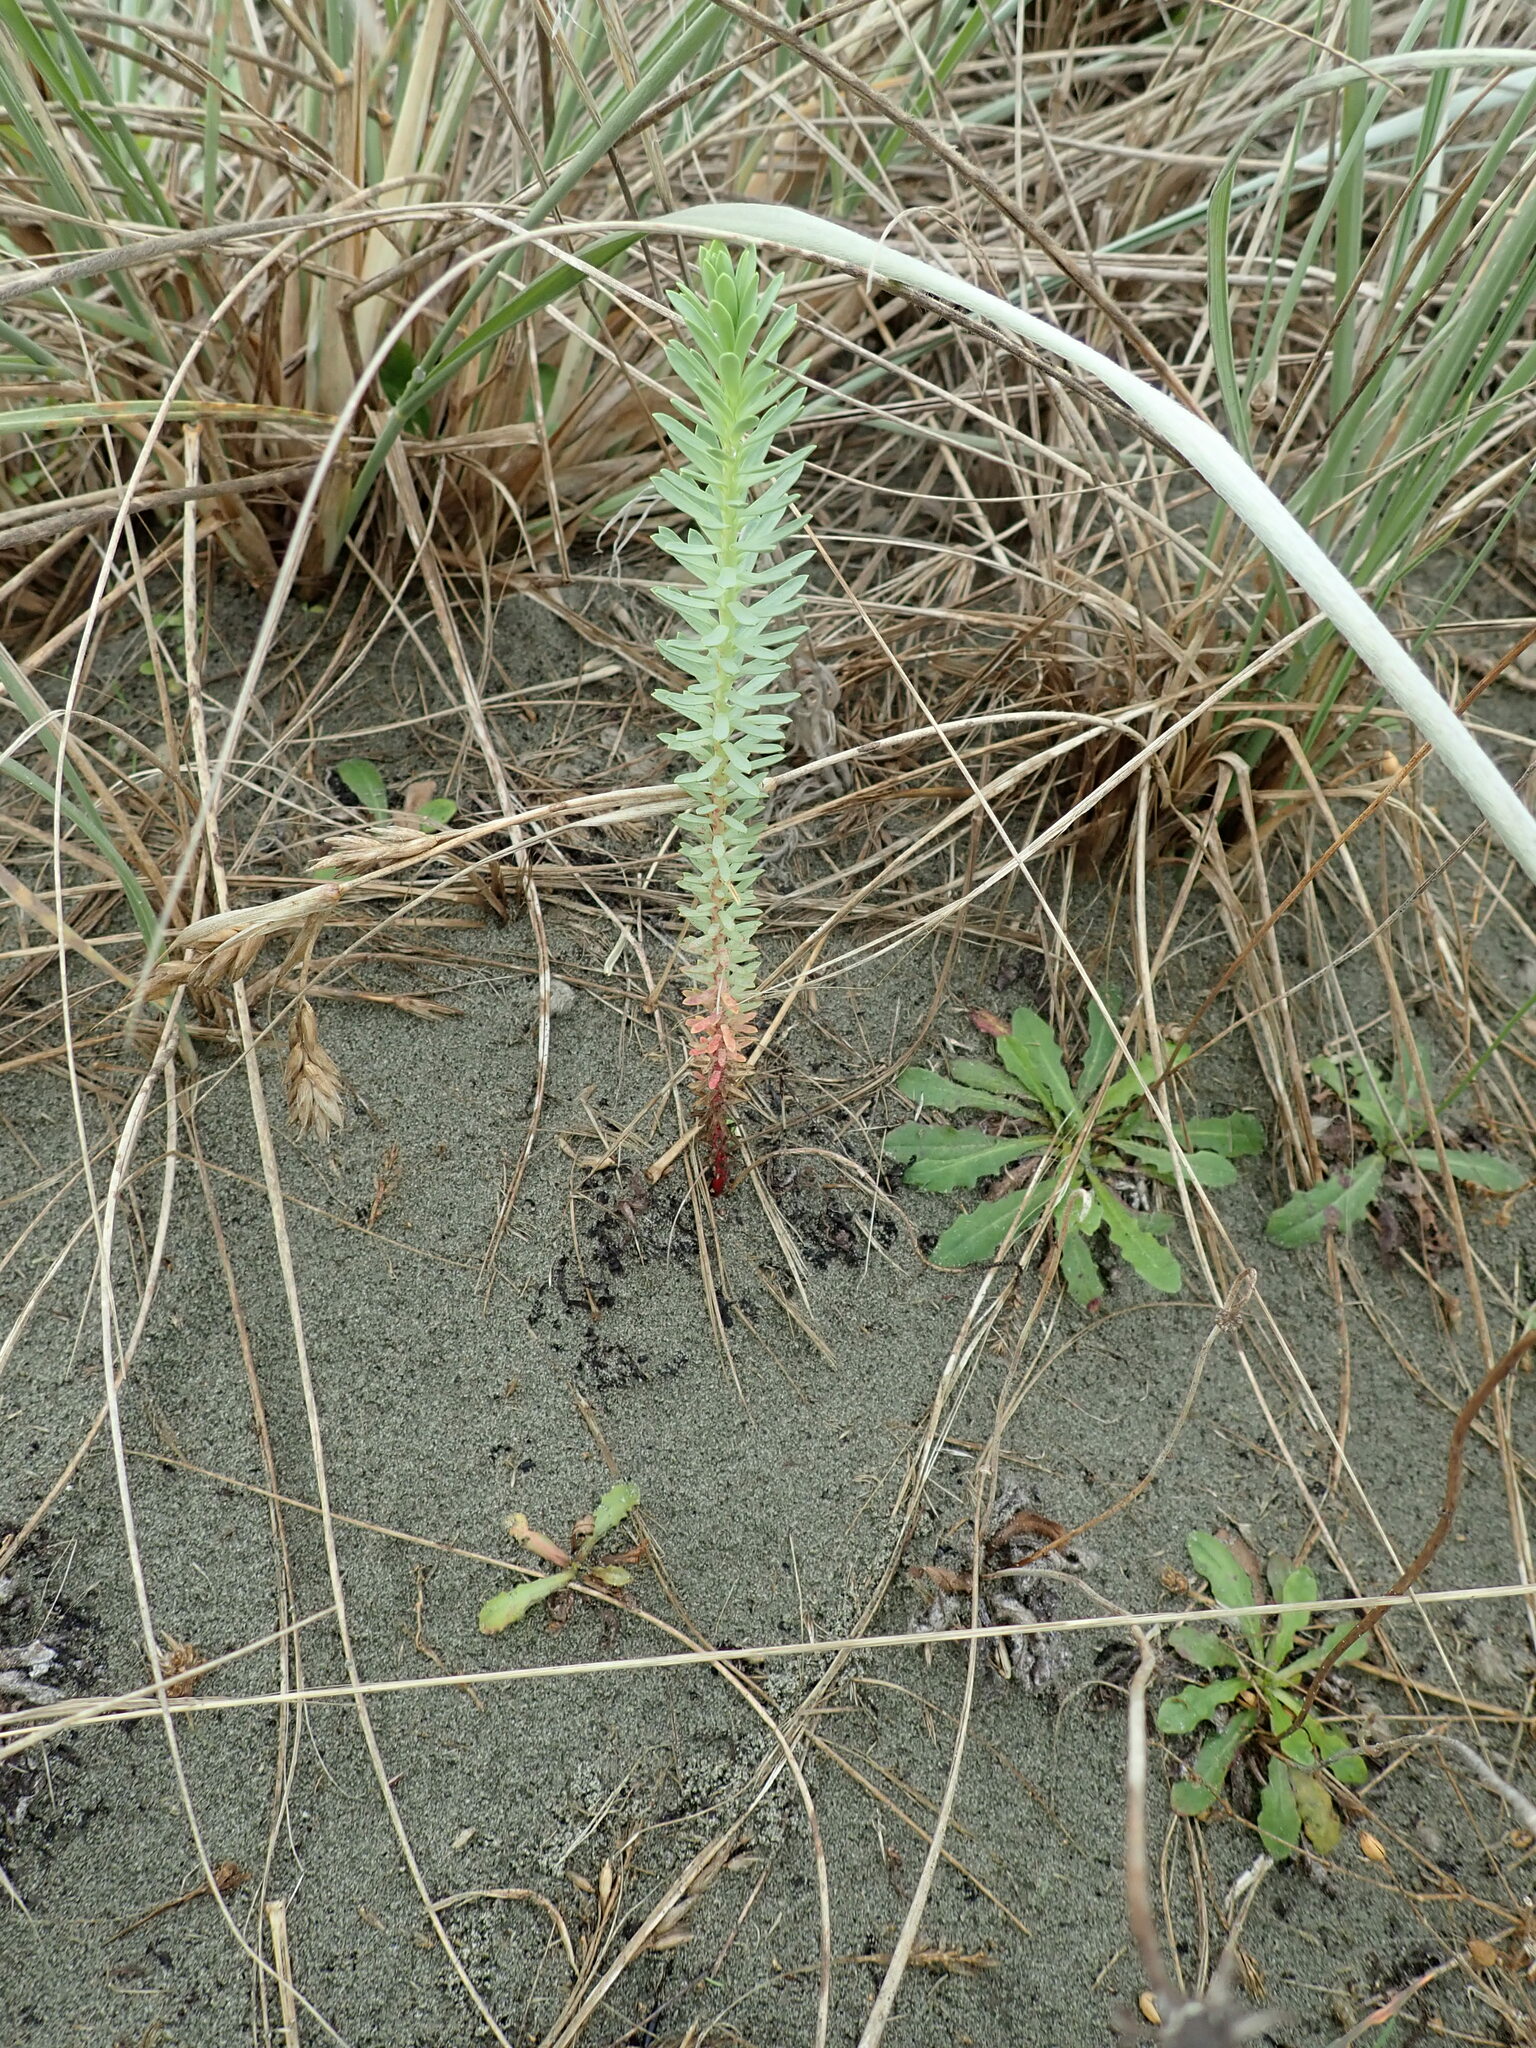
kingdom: Plantae
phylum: Tracheophyta
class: Magnoliopsida
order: Malpighiales
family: Euphorbiaceae
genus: Euphorbia
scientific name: Euphorbia paralias
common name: Sea spurge
